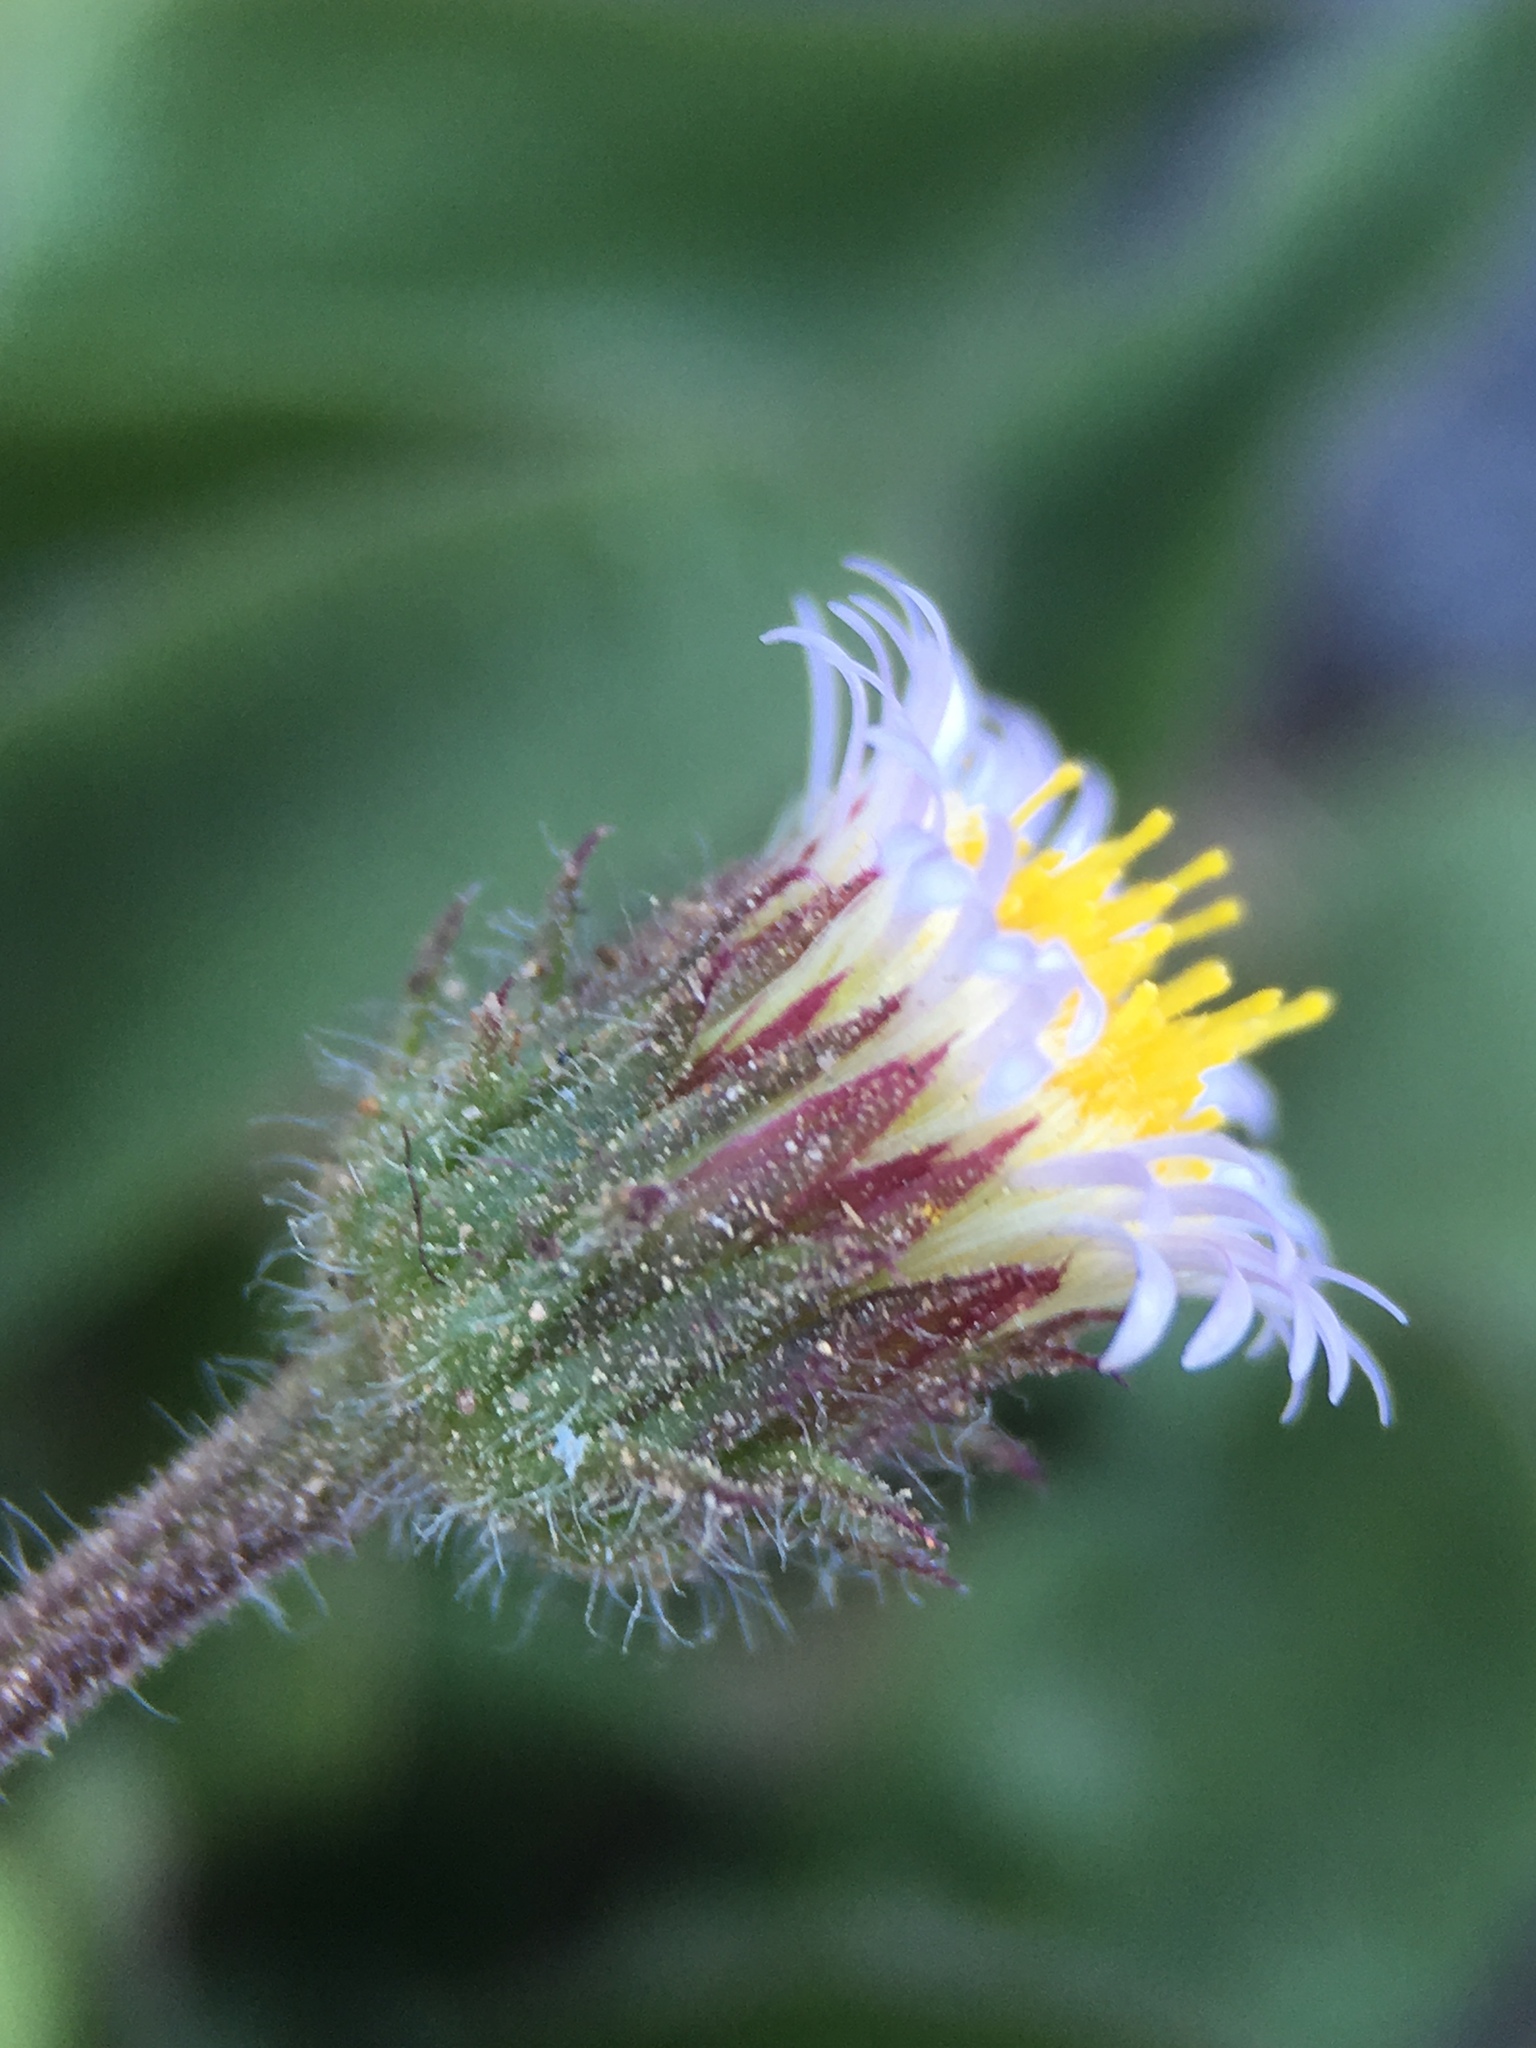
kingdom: Plantae
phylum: Tracheophyta
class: Magnoliopsida
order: Asterales
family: Asteraceae
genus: Erigeron
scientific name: Erigeron nivalis
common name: Snow fleabane
